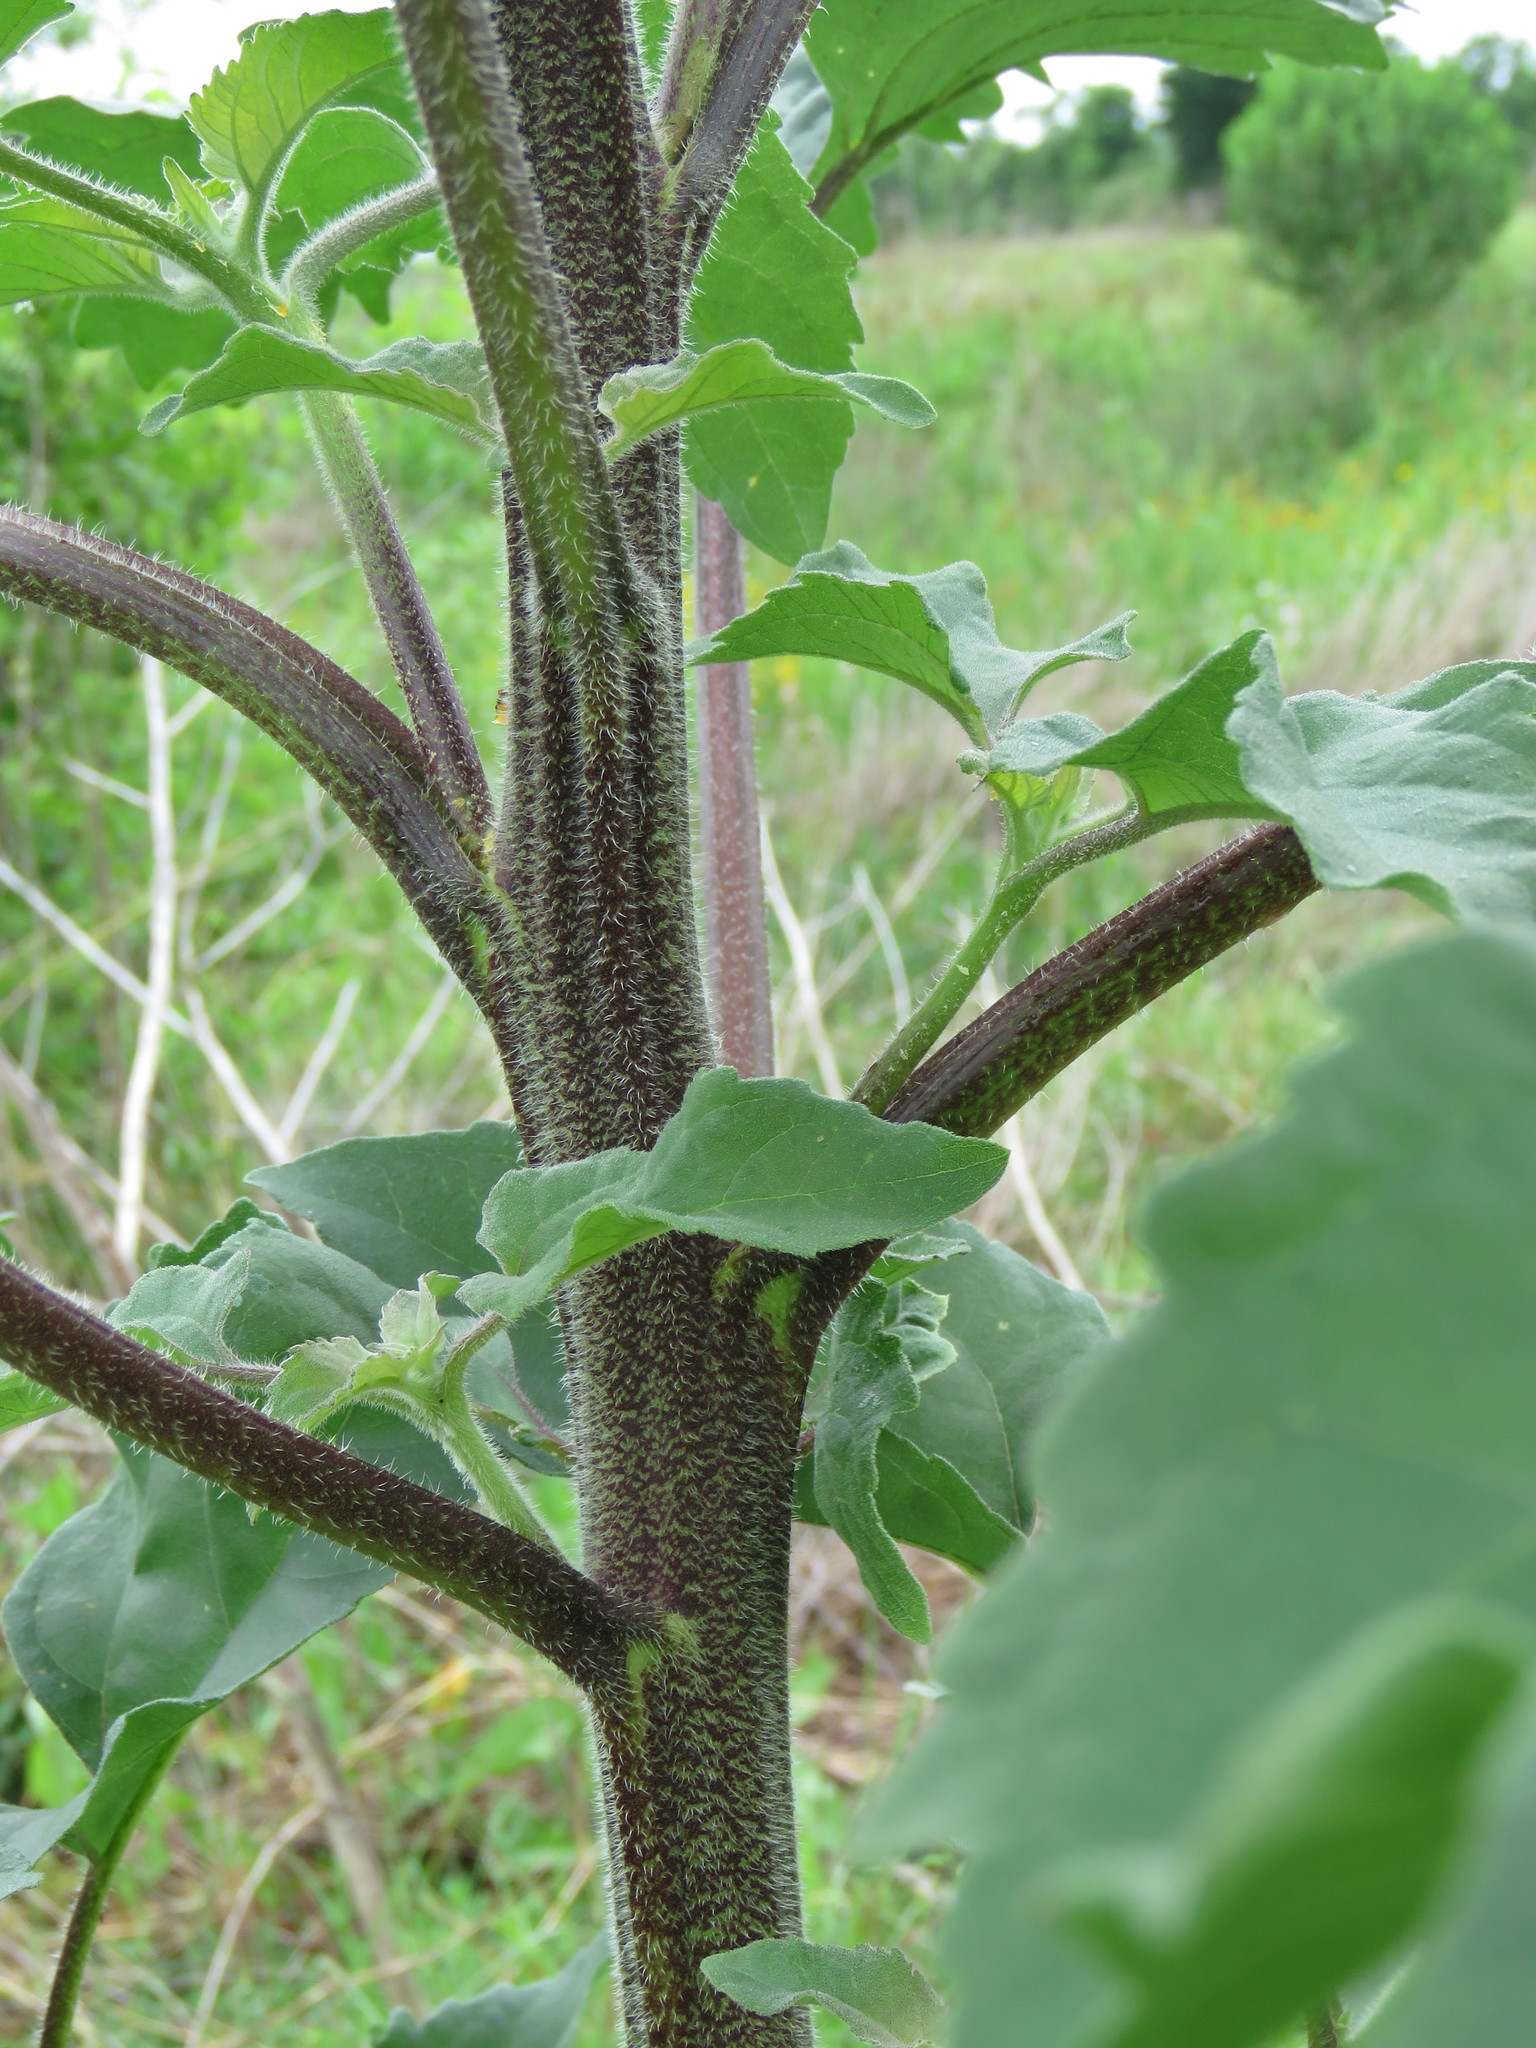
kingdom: Plantae
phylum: Tracheophyta
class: Magnoliopsida
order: Asterales
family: Asteraceae
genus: Helianthus
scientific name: Helianthus annuus
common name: Sunflower
